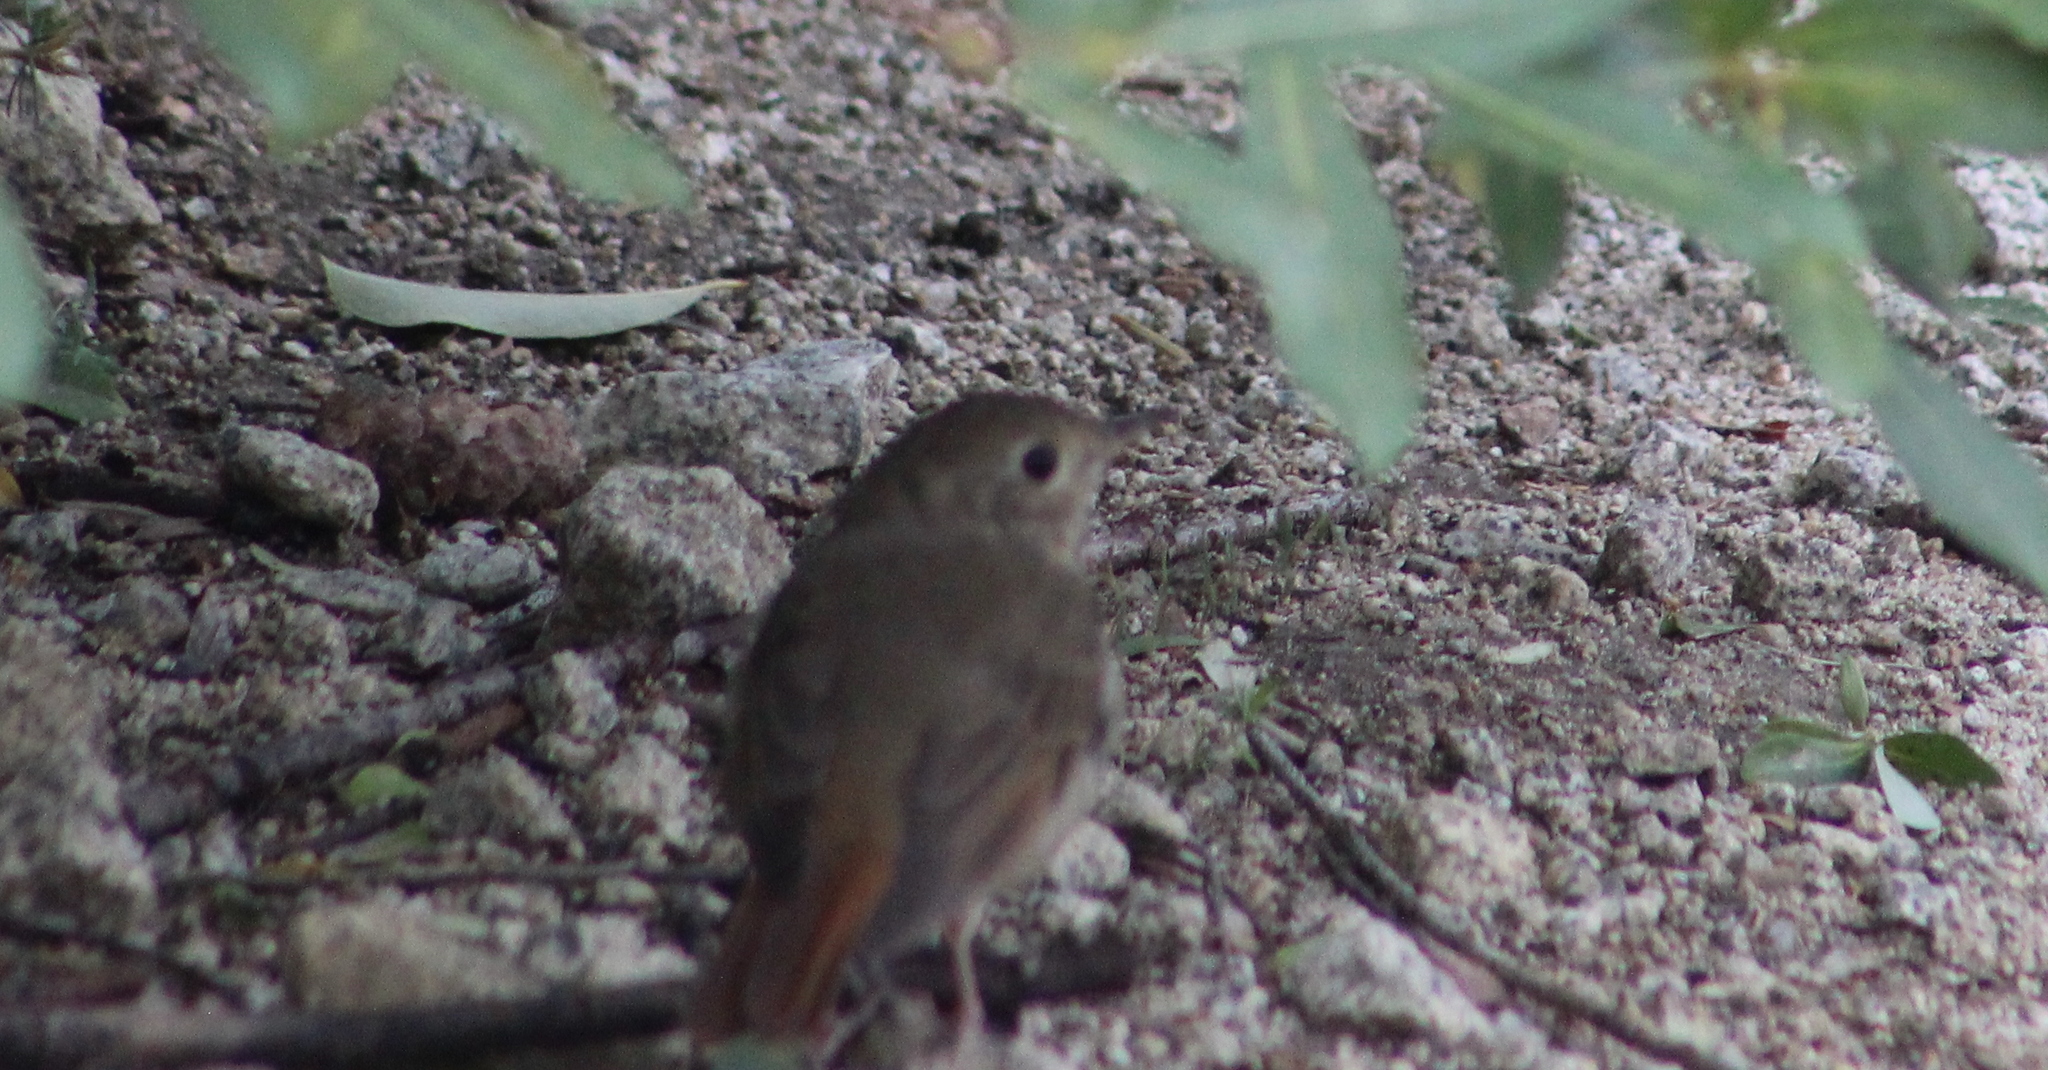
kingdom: Animalia
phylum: Chordata
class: Aves
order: Passeriformes
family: Turdidae
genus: Catharus
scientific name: Catharus guttatus
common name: Hermit thrush
